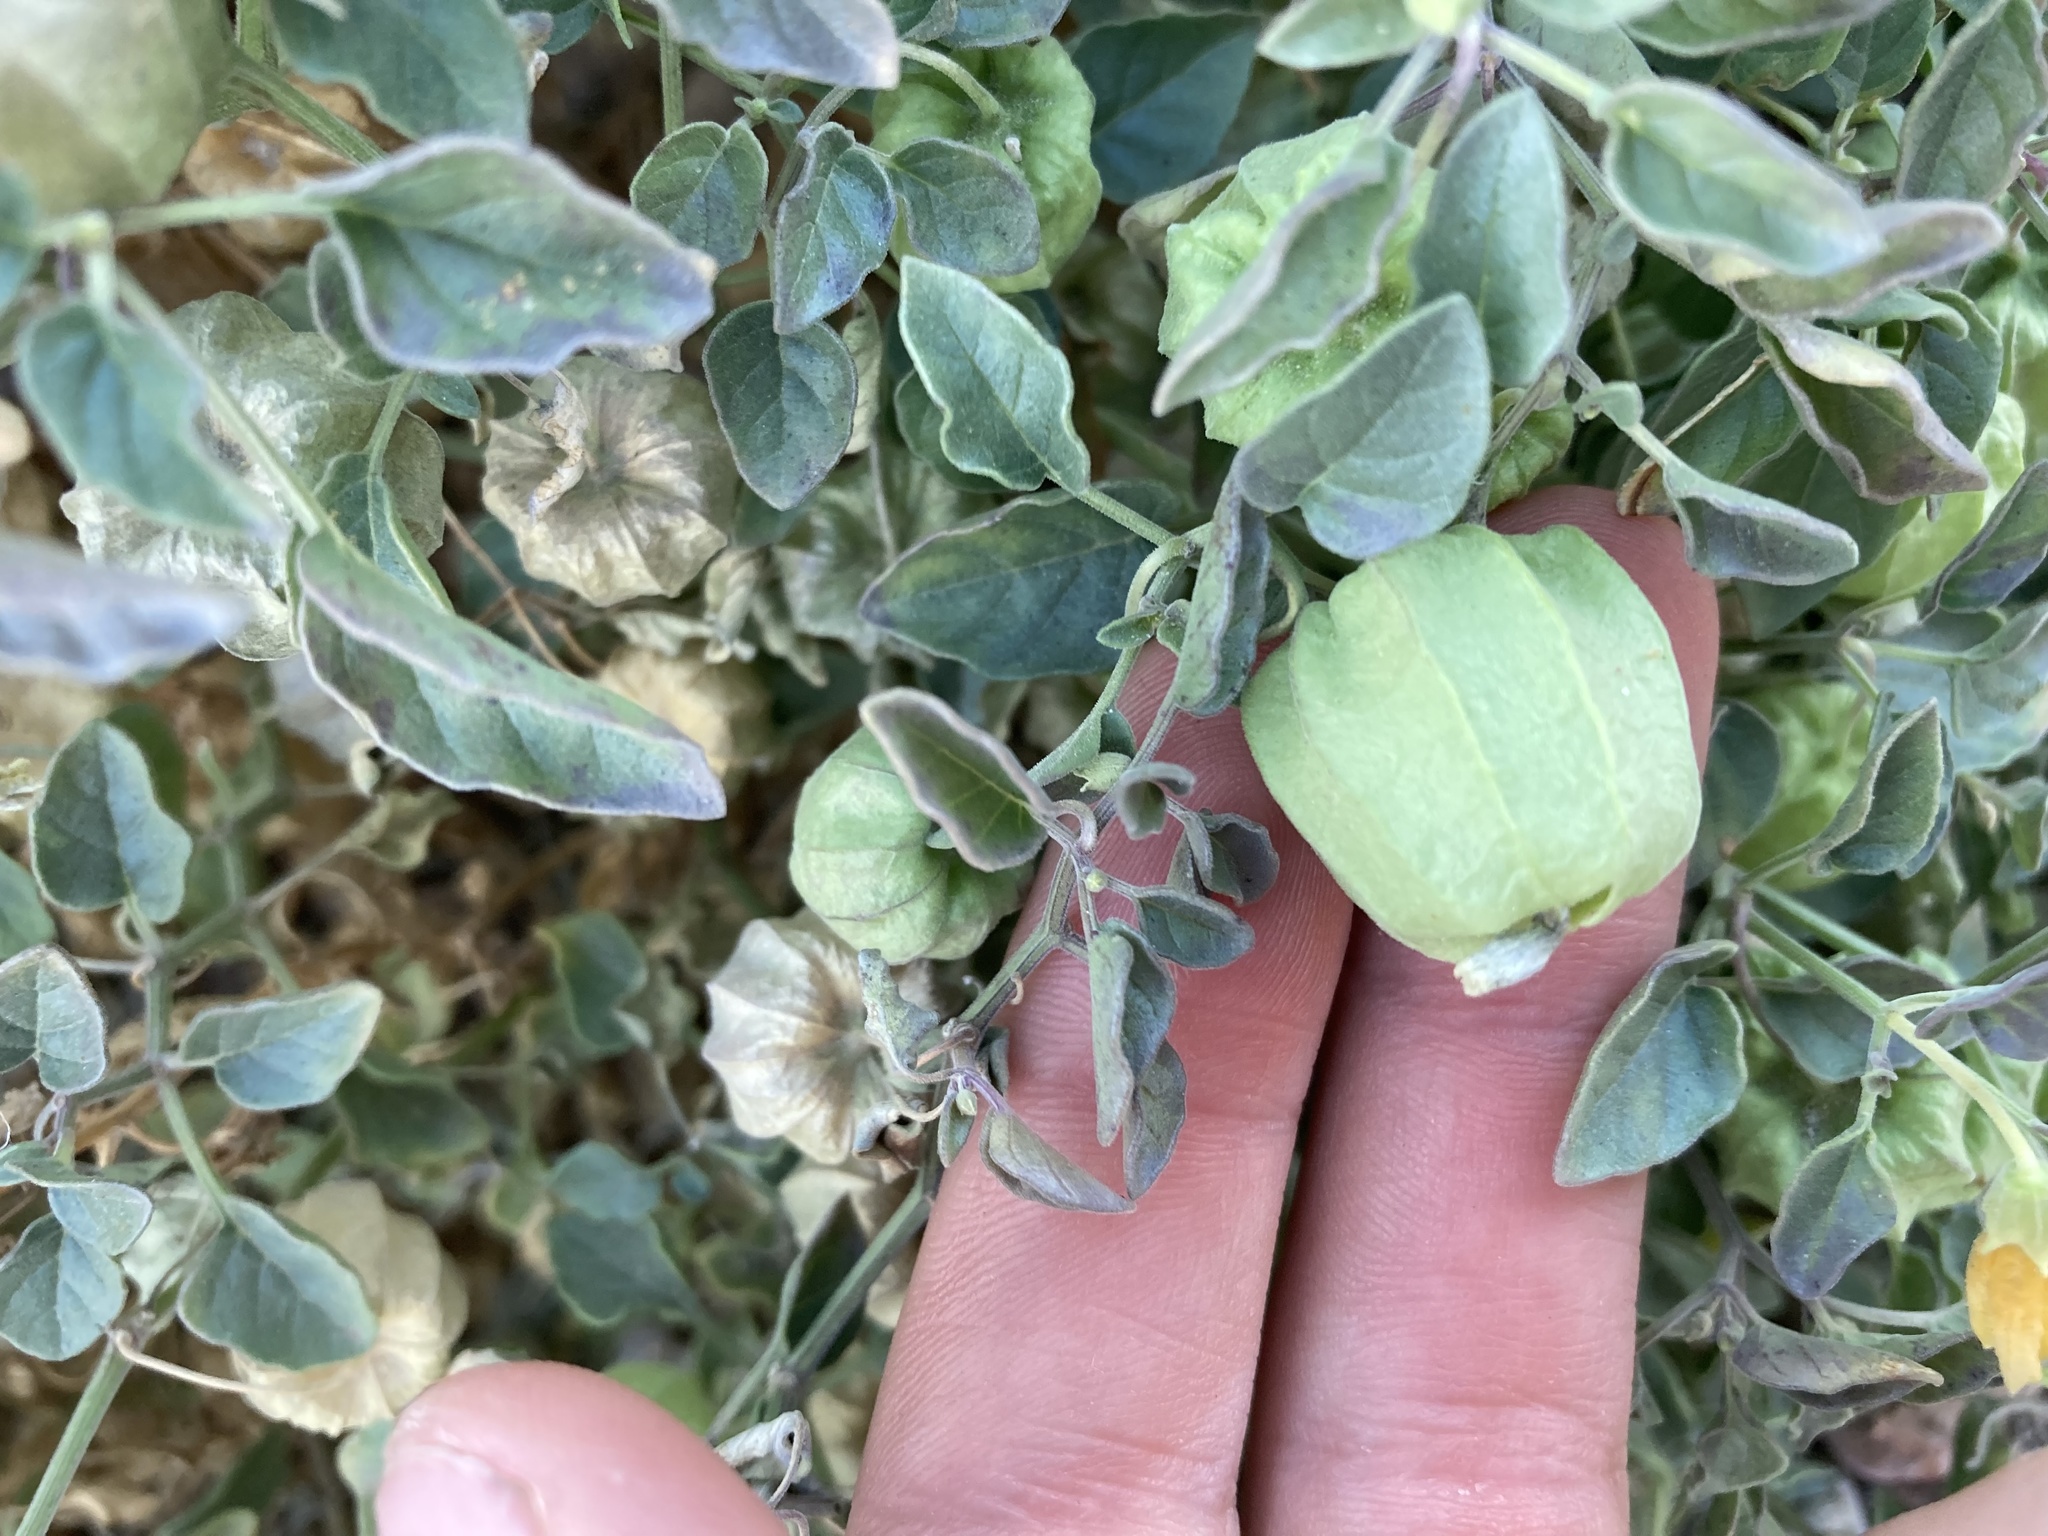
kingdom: Plantae
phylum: Tracheophyta
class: Magnoliopsida
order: Solanales
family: Solanaceae
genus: Physalis
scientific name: Physalis crassifolia
